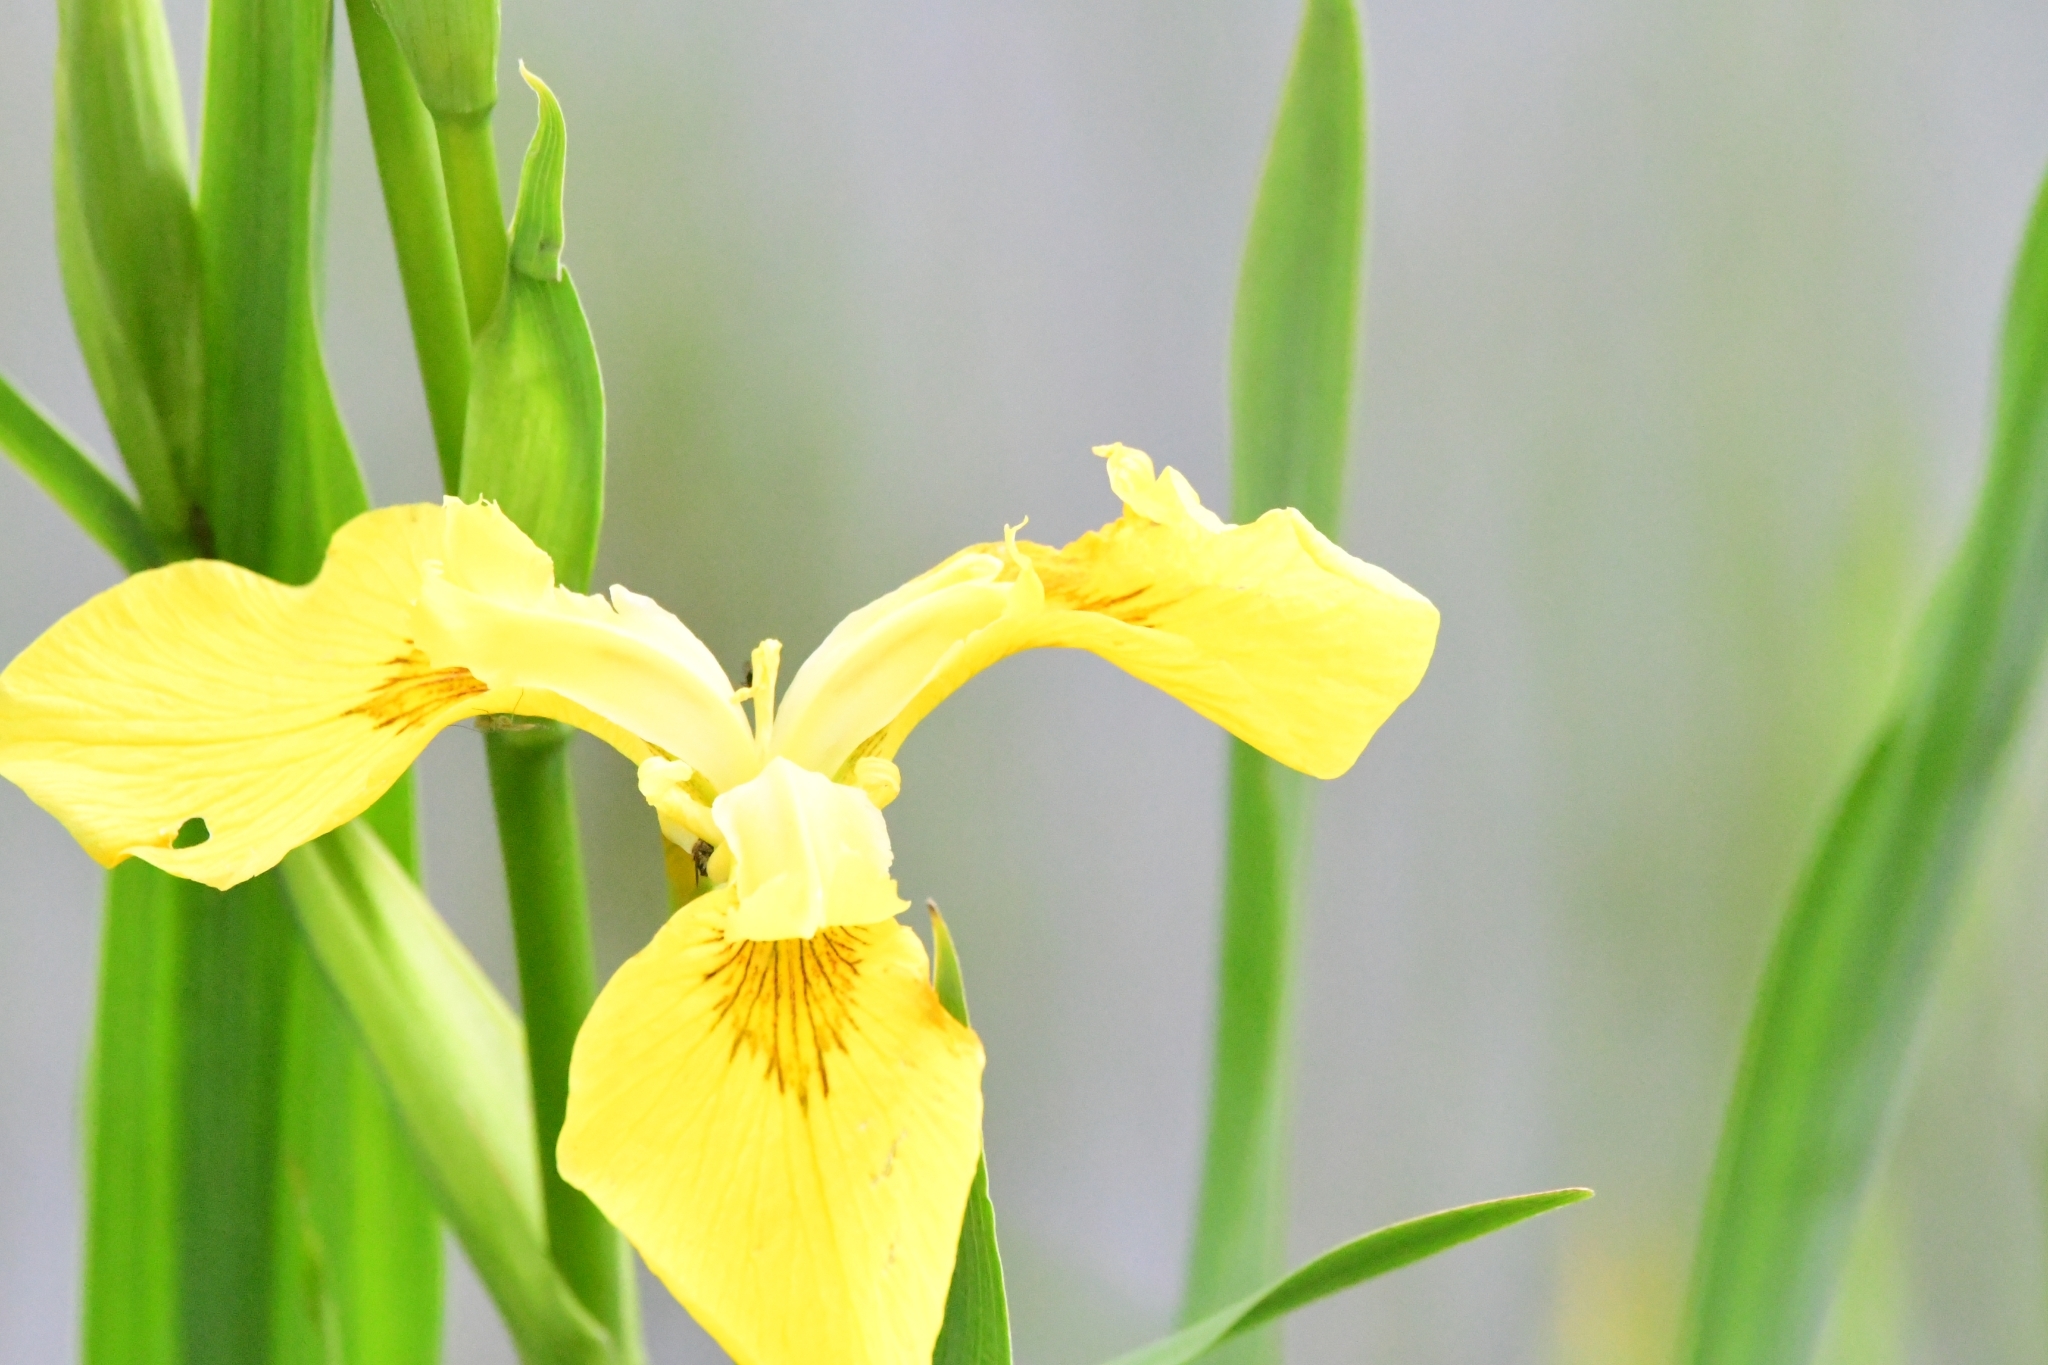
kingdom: Plantae
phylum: Tracheophyta
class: Liliopsida
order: Asparagales
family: Iridaceae
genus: Iris
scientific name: Iris pseudacorus
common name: Yellow flag
